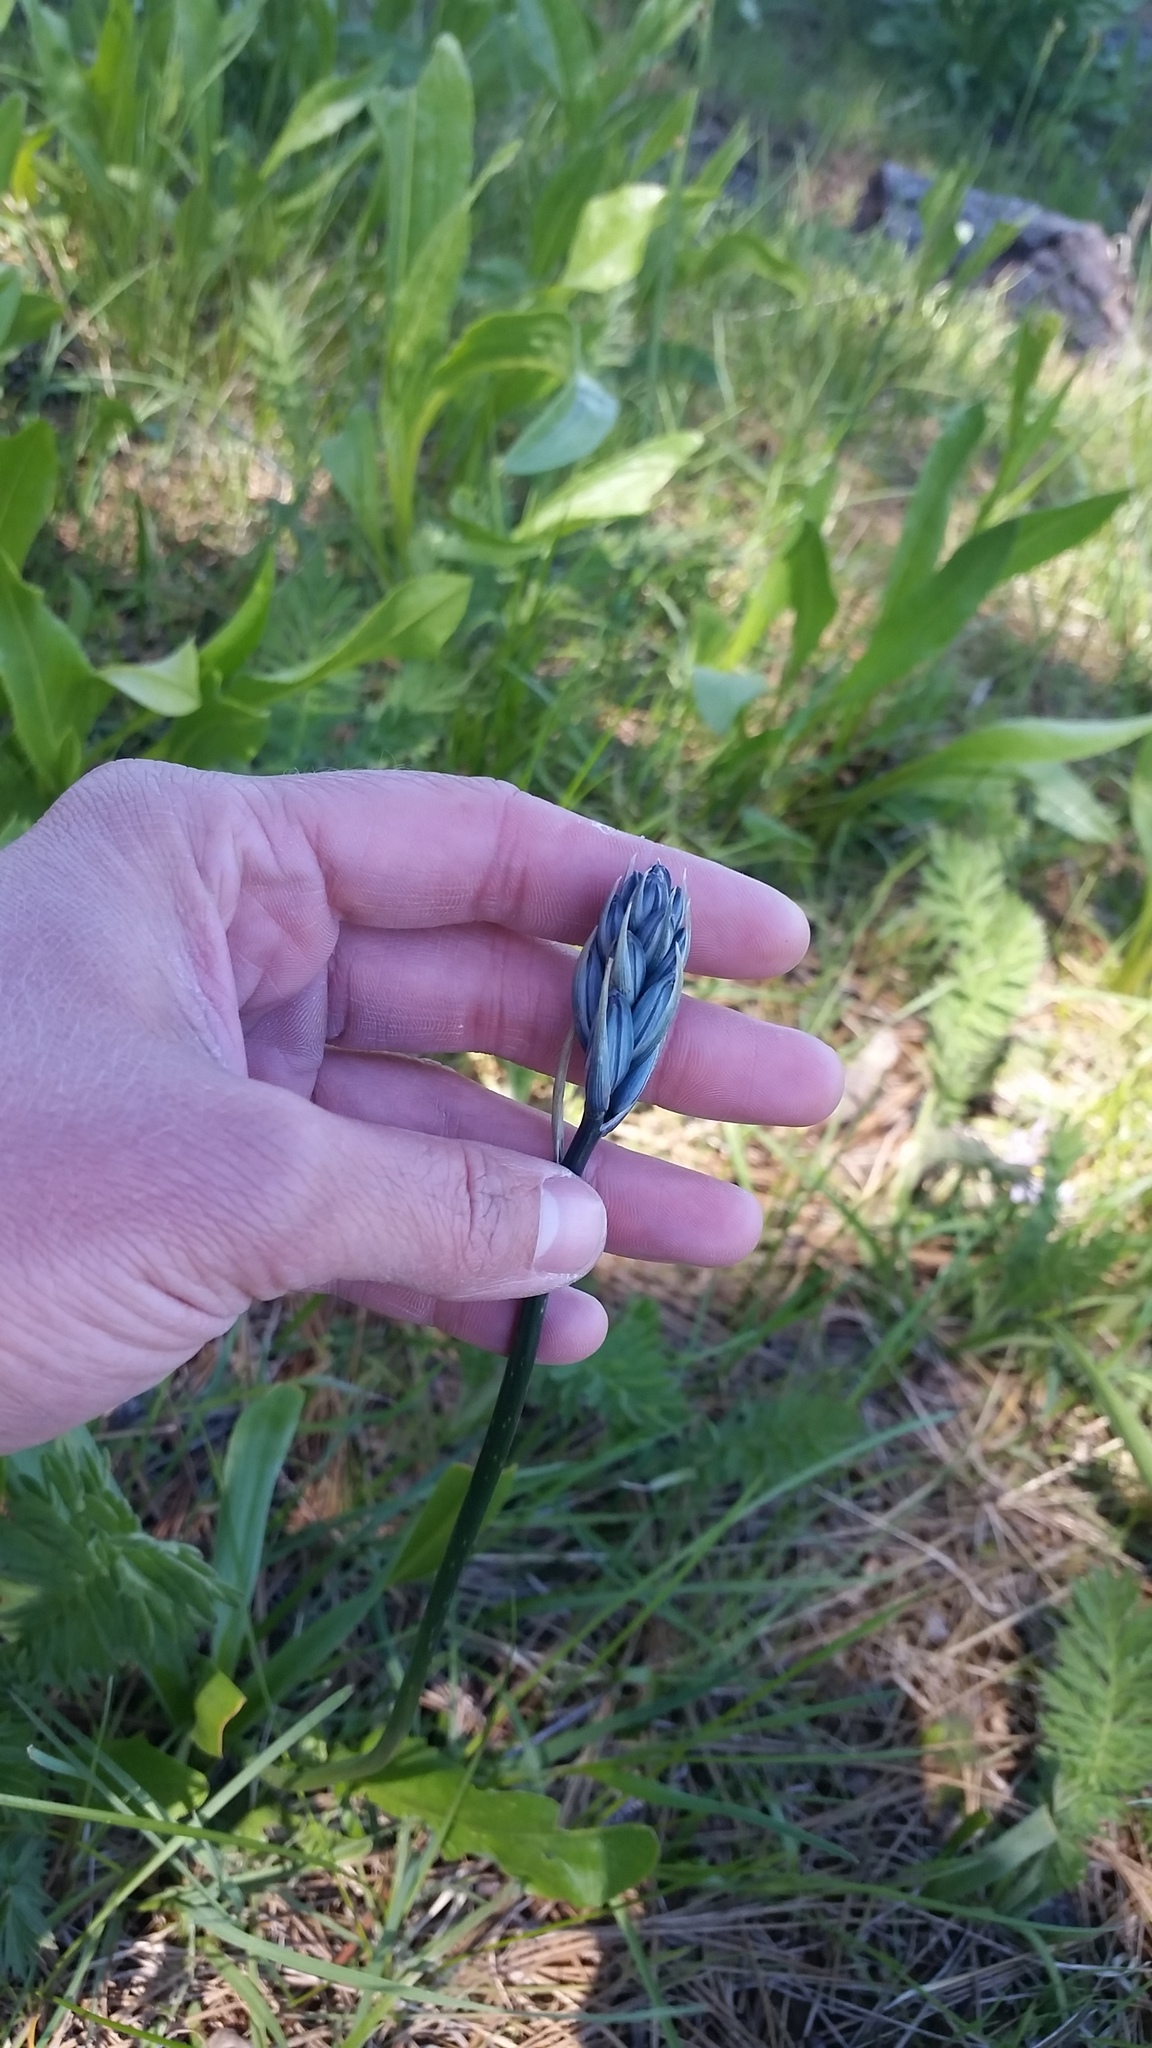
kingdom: Plantae
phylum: Tracheophyta
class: Liliopsida
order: Asparagales
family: Asparagaceae
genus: Camassia
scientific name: Camassia quamash
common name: Common camas
